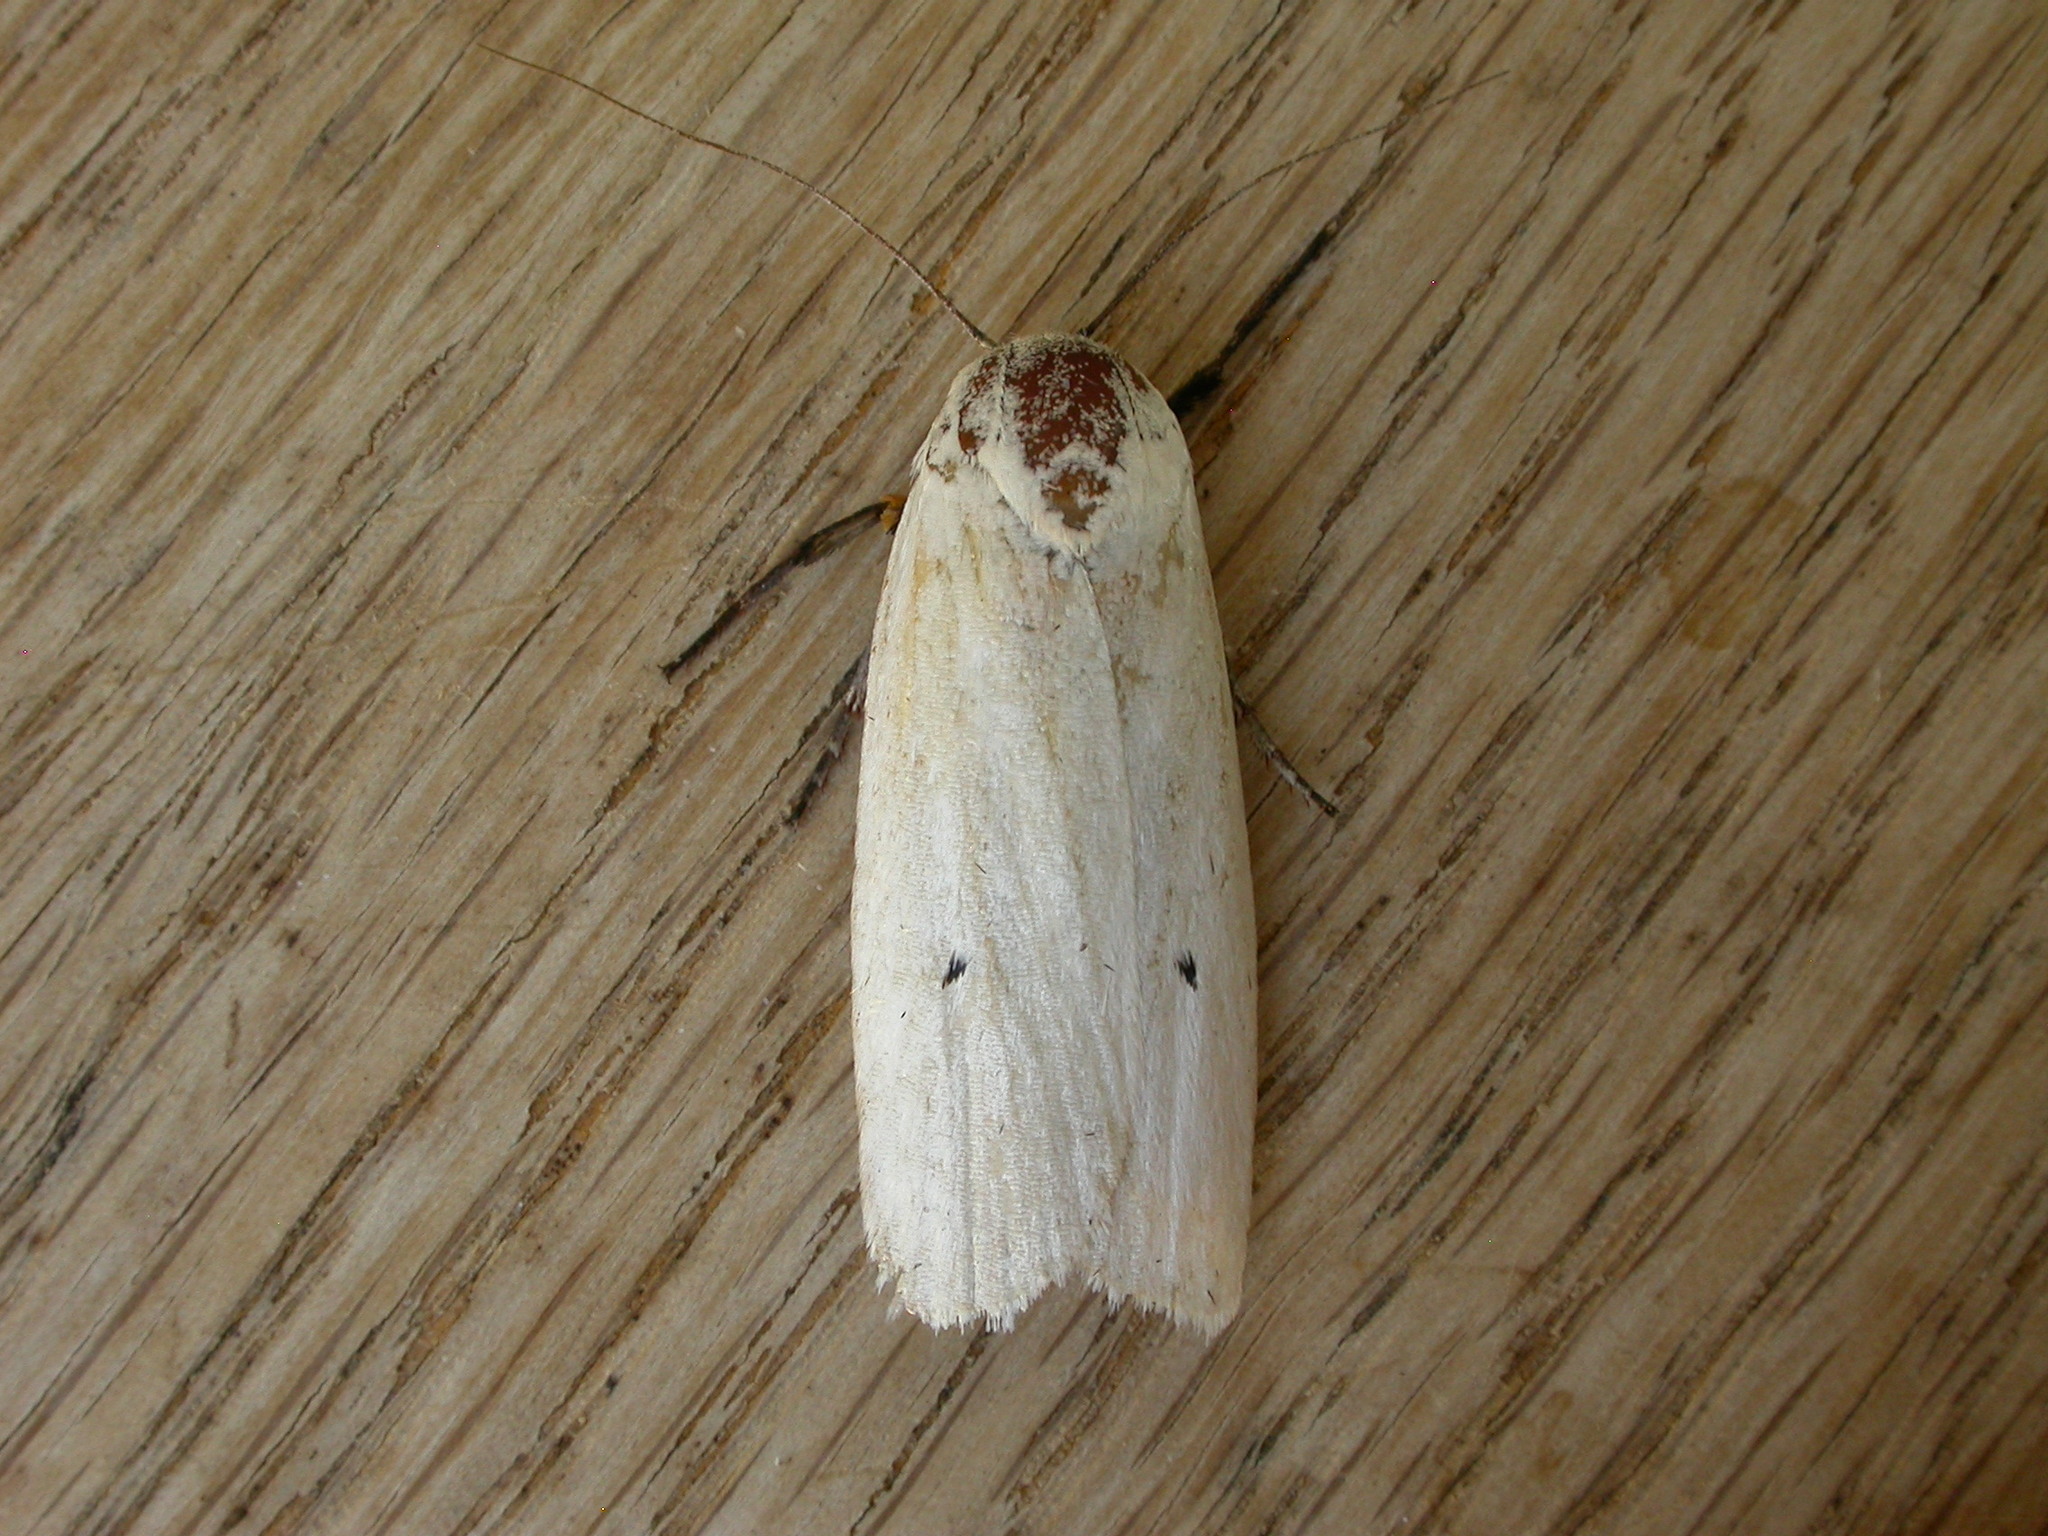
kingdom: Animalia
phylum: Arthropoda
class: Insecta
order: Lepidoptera
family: Xyloryctidae
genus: Maroga
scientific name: Maroga melanostigma
